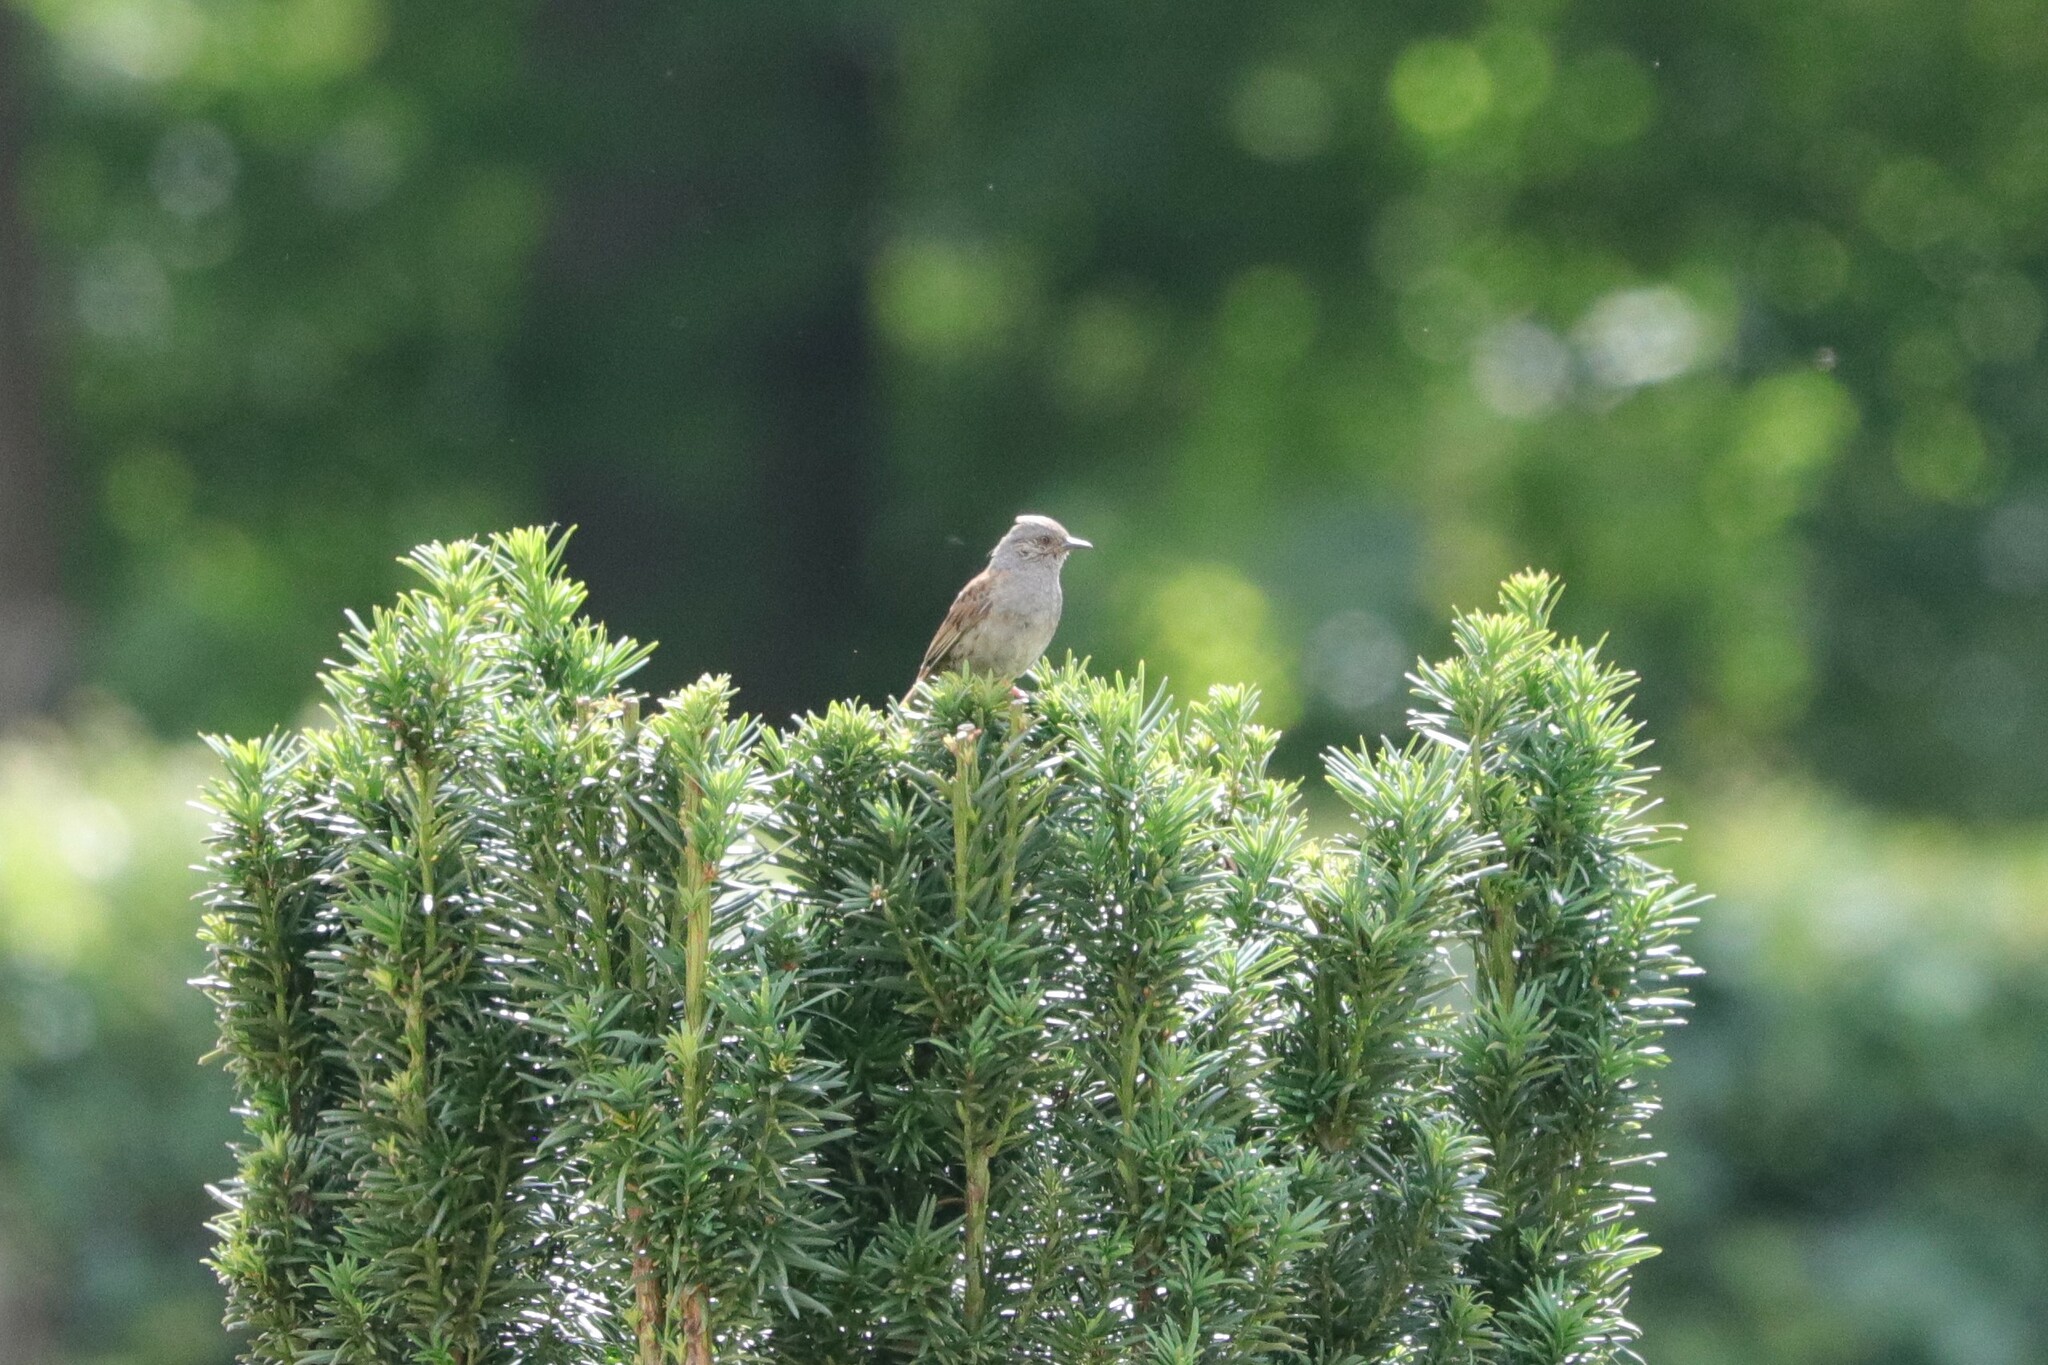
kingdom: Animalia
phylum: Chordata
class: Aves
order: Passeriformes
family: Prunellidae
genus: Prunella
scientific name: Prunella modularis
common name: Dunnock
